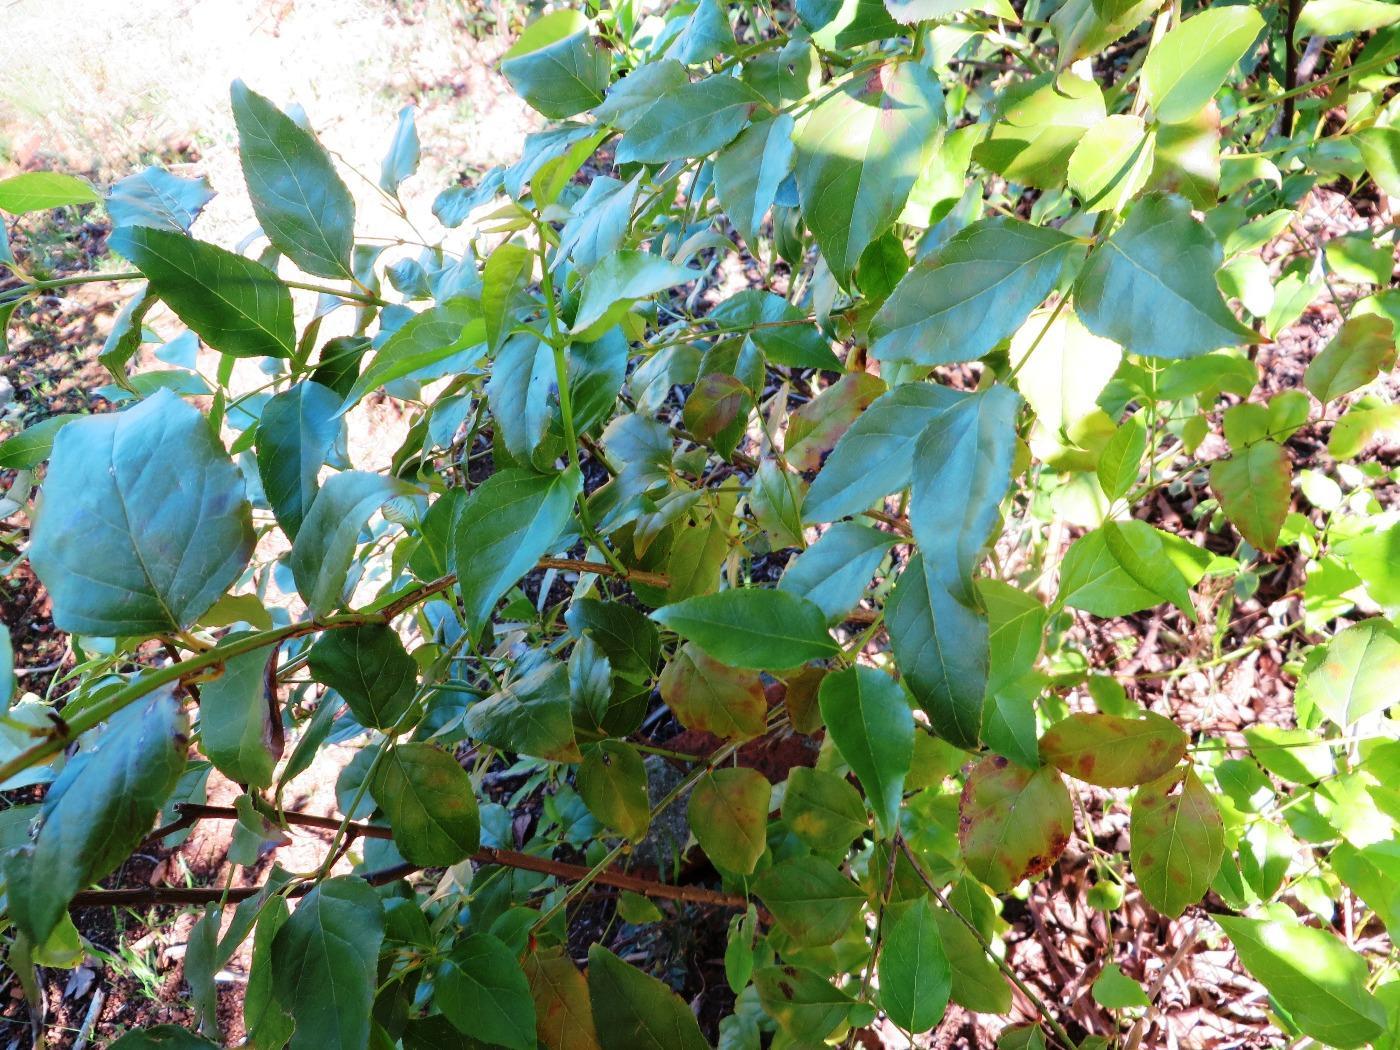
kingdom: Plantae
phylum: Tracheophyta
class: Magnoliopsida
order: Lamiales
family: Stilbaceae
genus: Halleria
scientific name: Halleria lucida
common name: Tree fuschia
